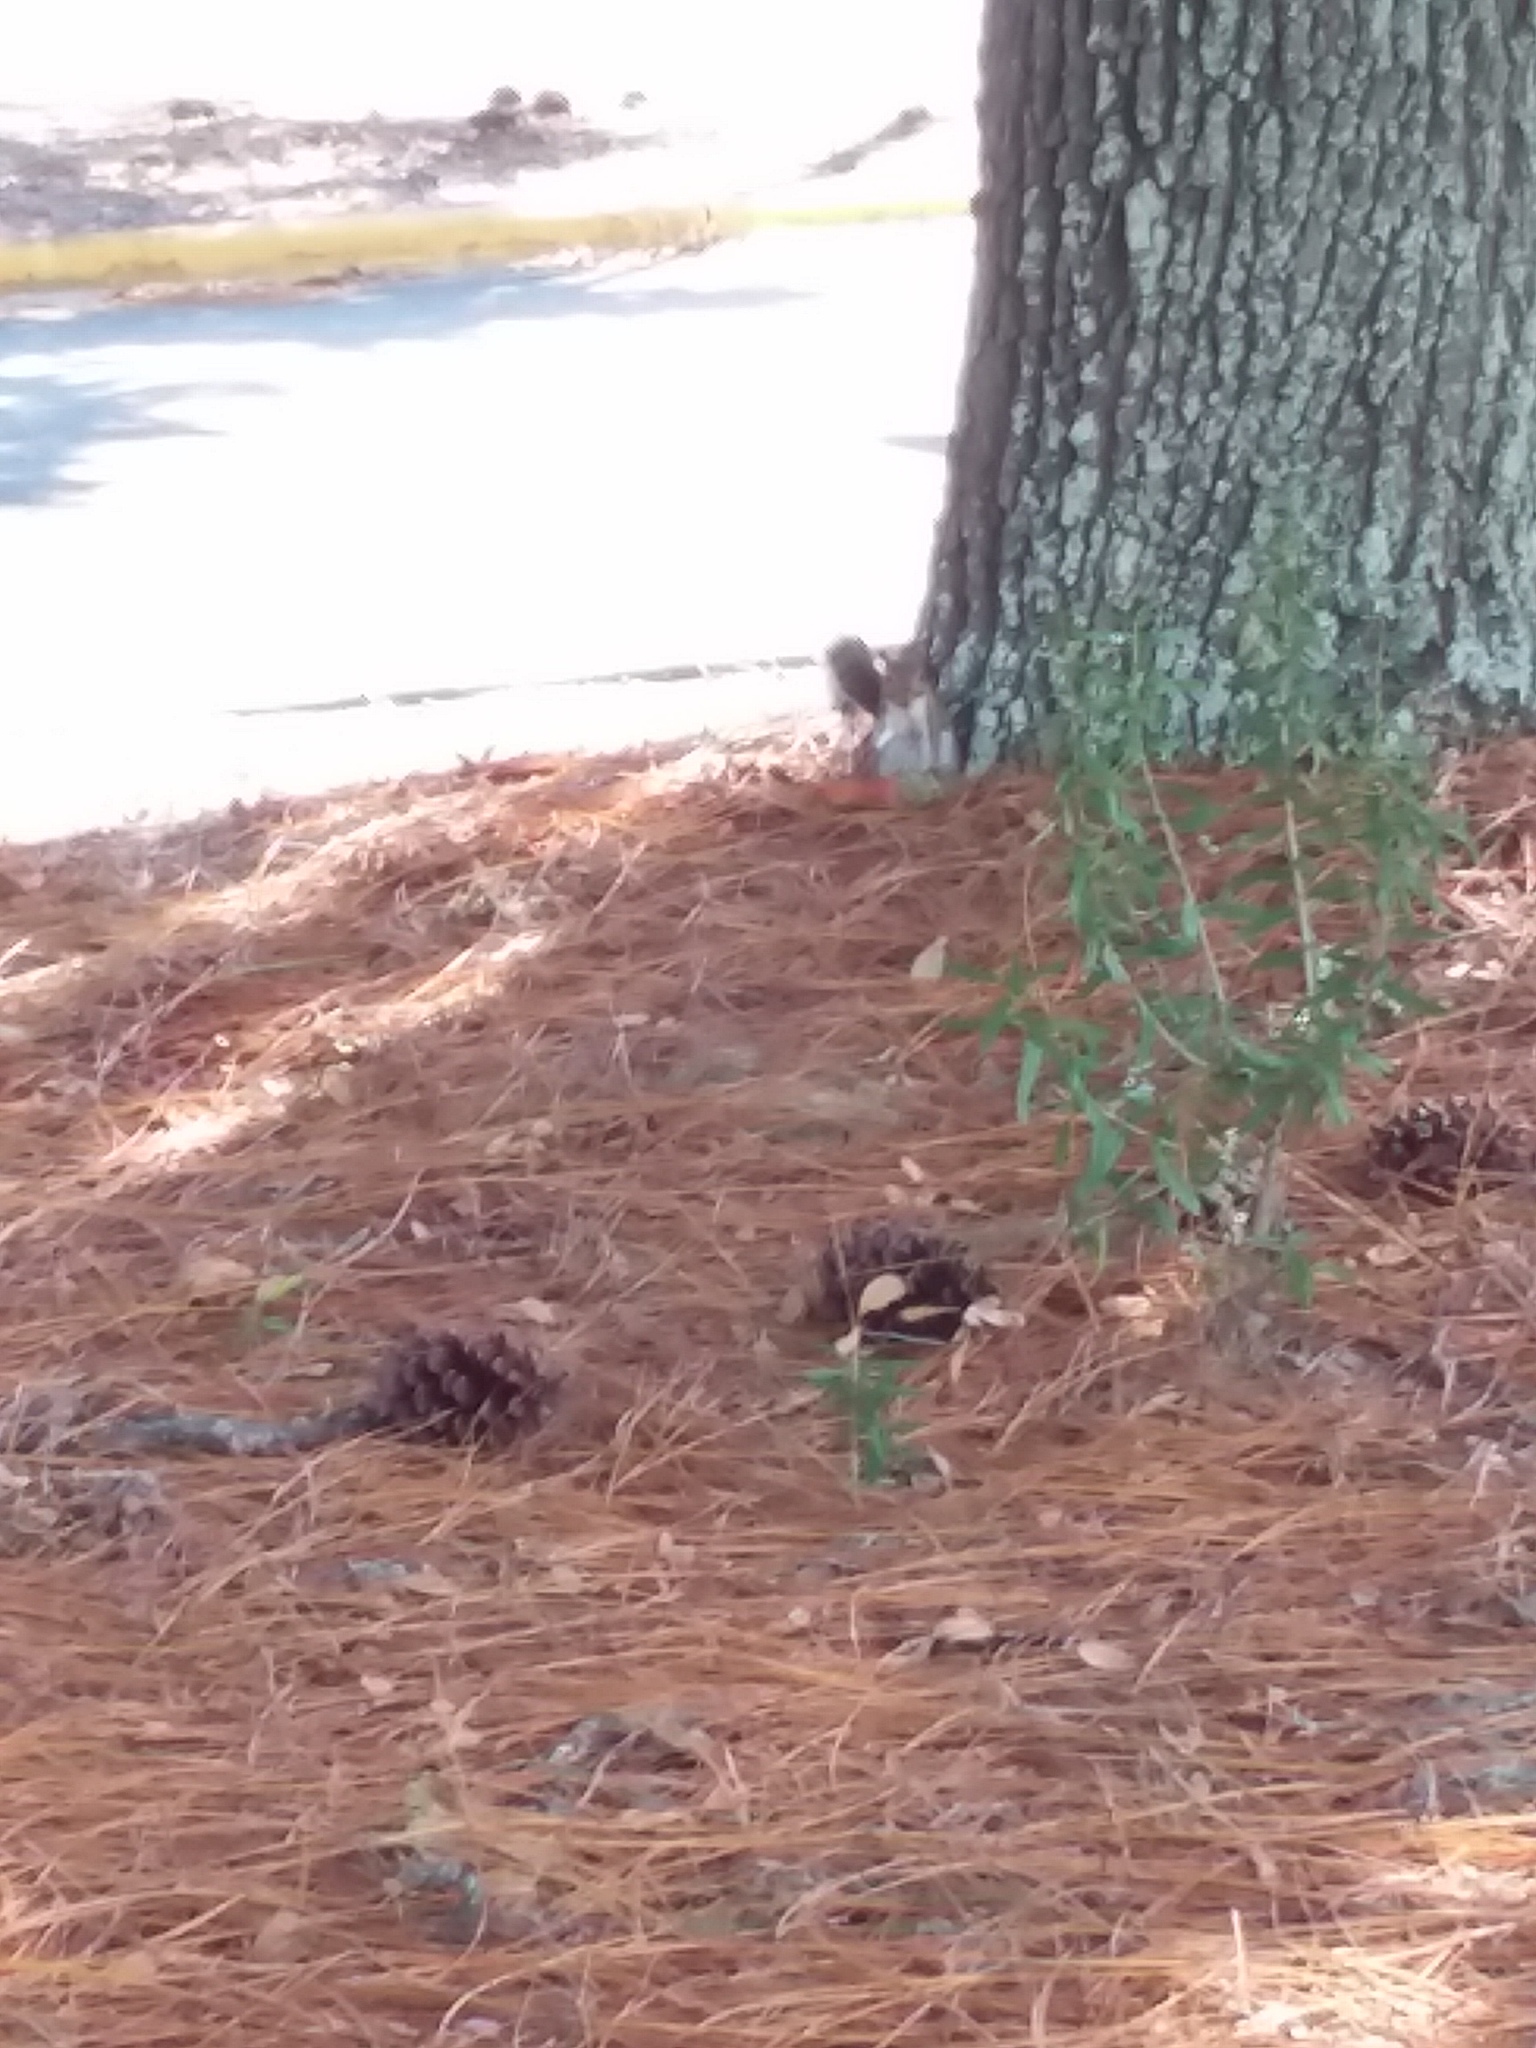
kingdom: Animalia
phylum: Chordata
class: Mammalia
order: Rodentia
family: Sciuridae
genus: Sciurus
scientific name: Sciurus carolinensis
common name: Eastern gray squirrel
